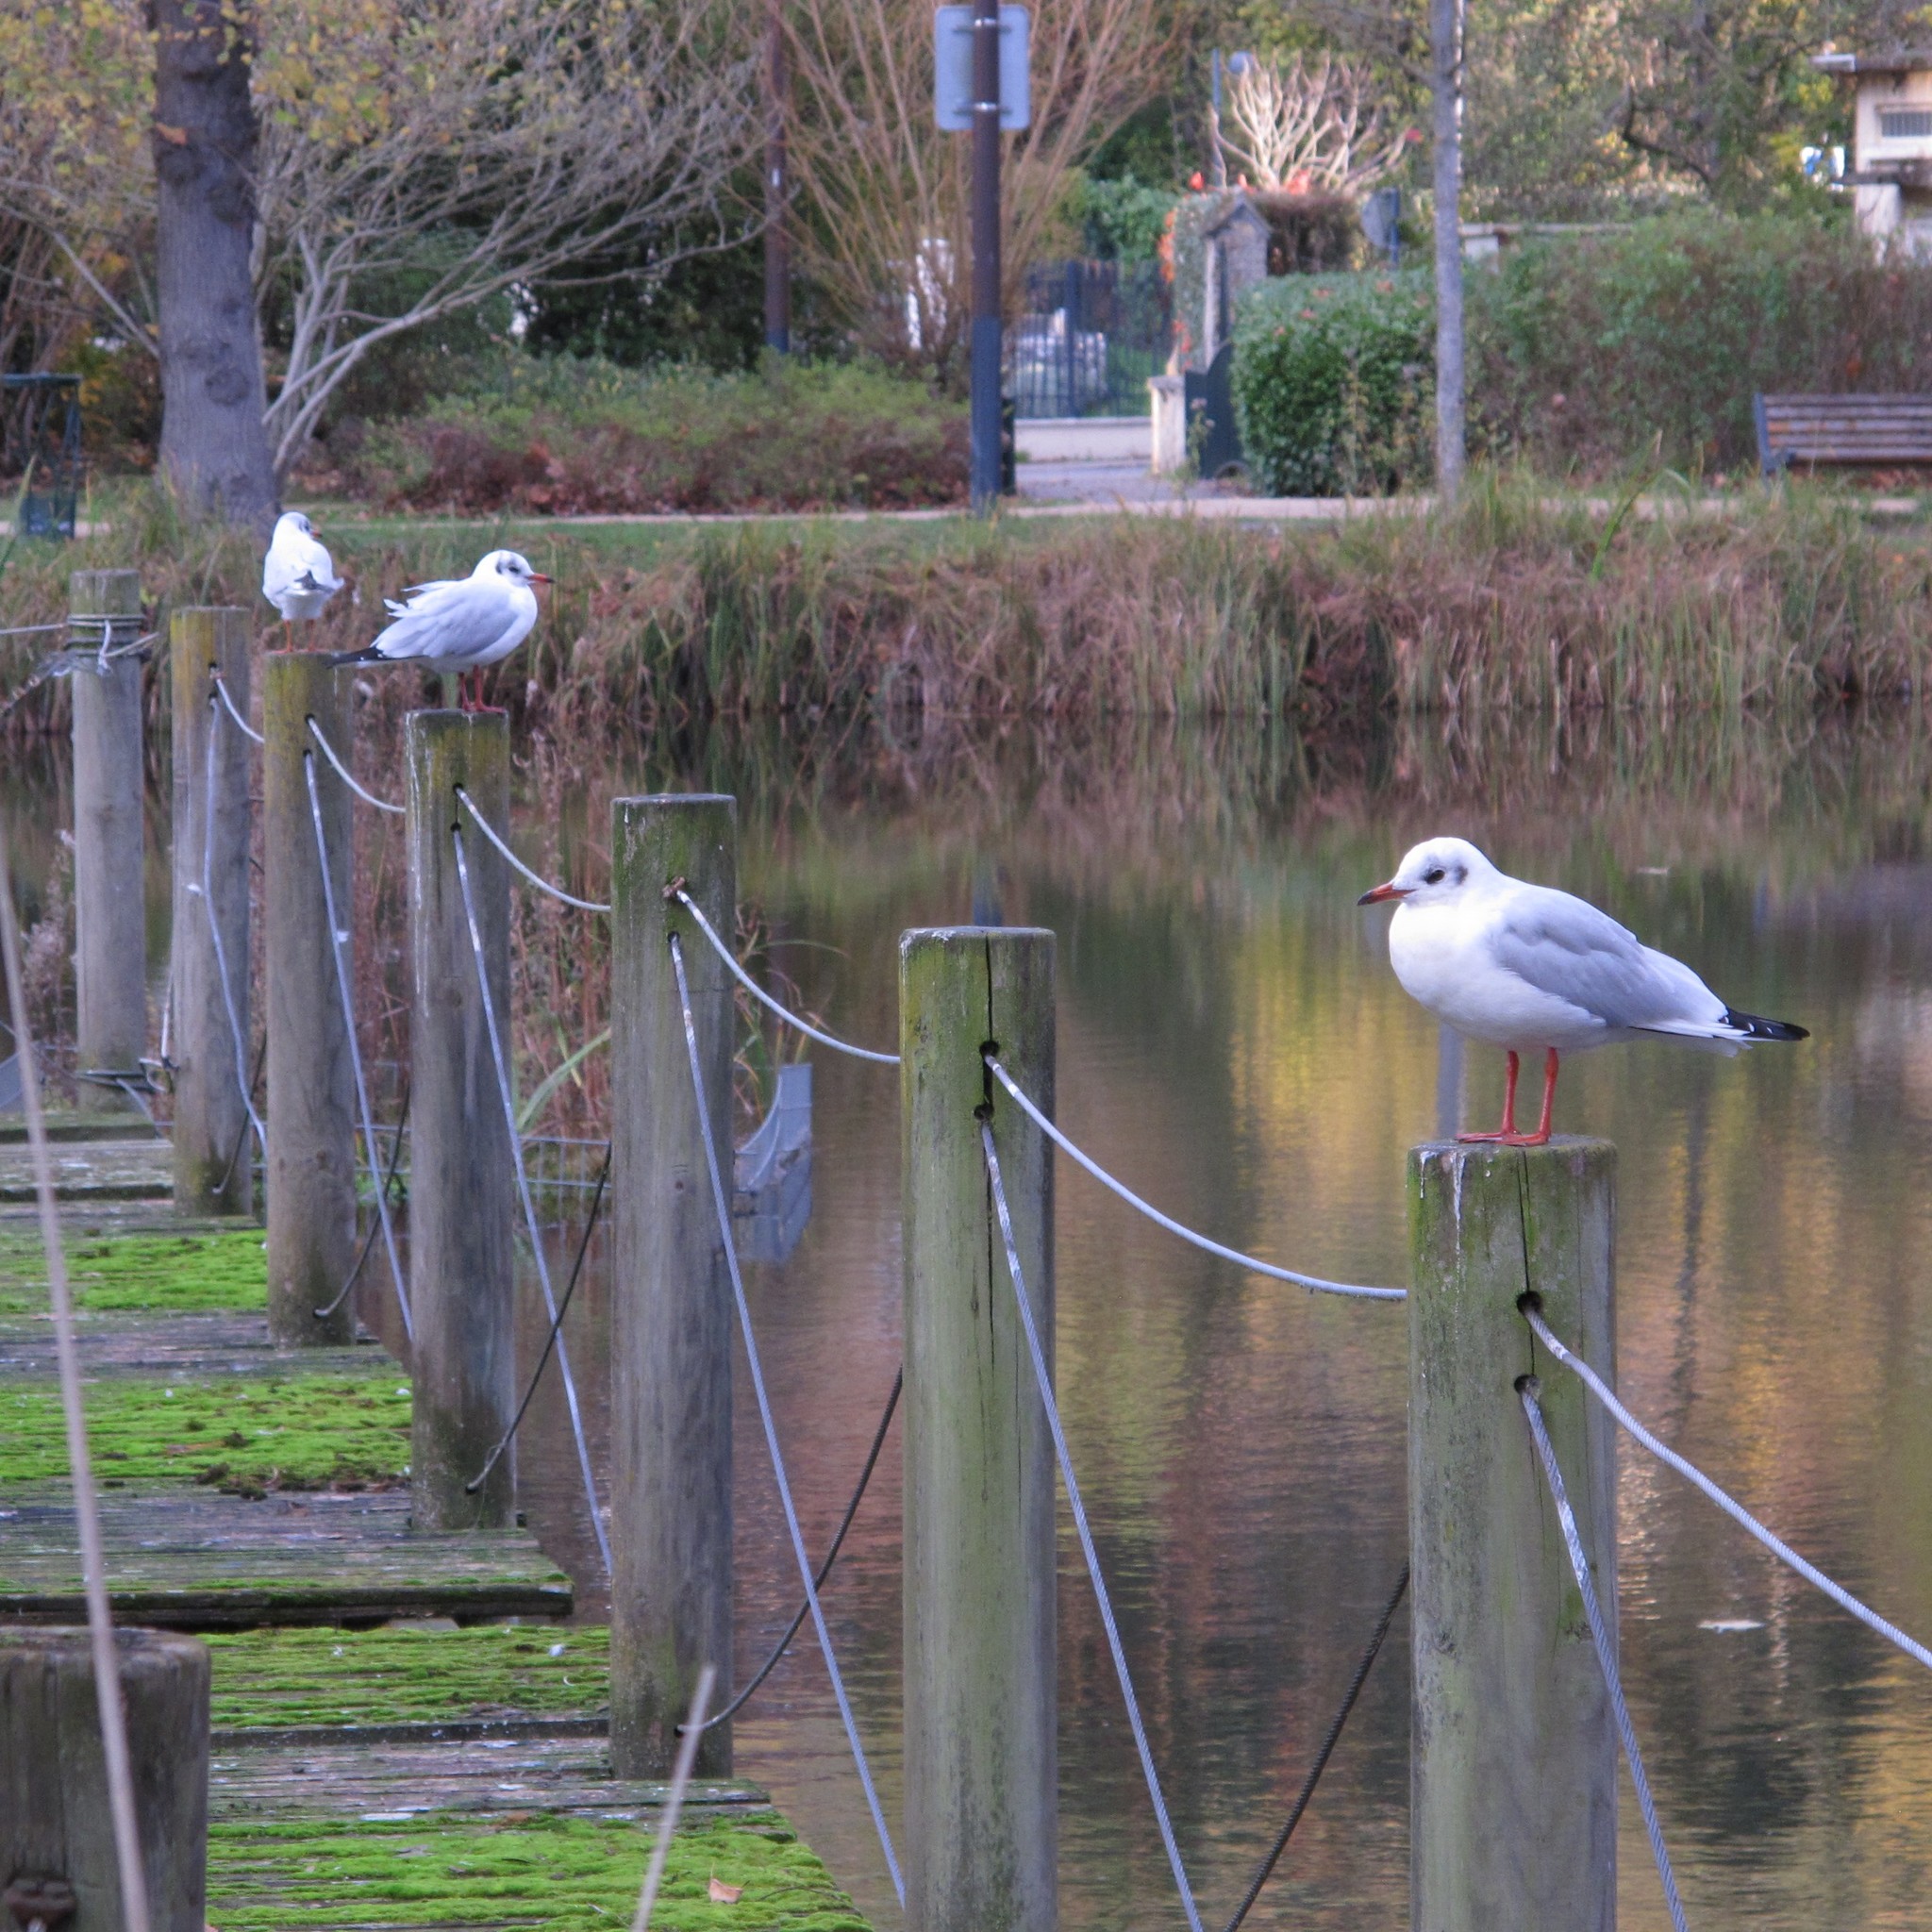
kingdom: Animalia
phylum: Chordata
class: Aves
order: Charadriiformes
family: Laridae
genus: Chroicocephalus
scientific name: Chroicocephalus ridibundus
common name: Black-headed gull
